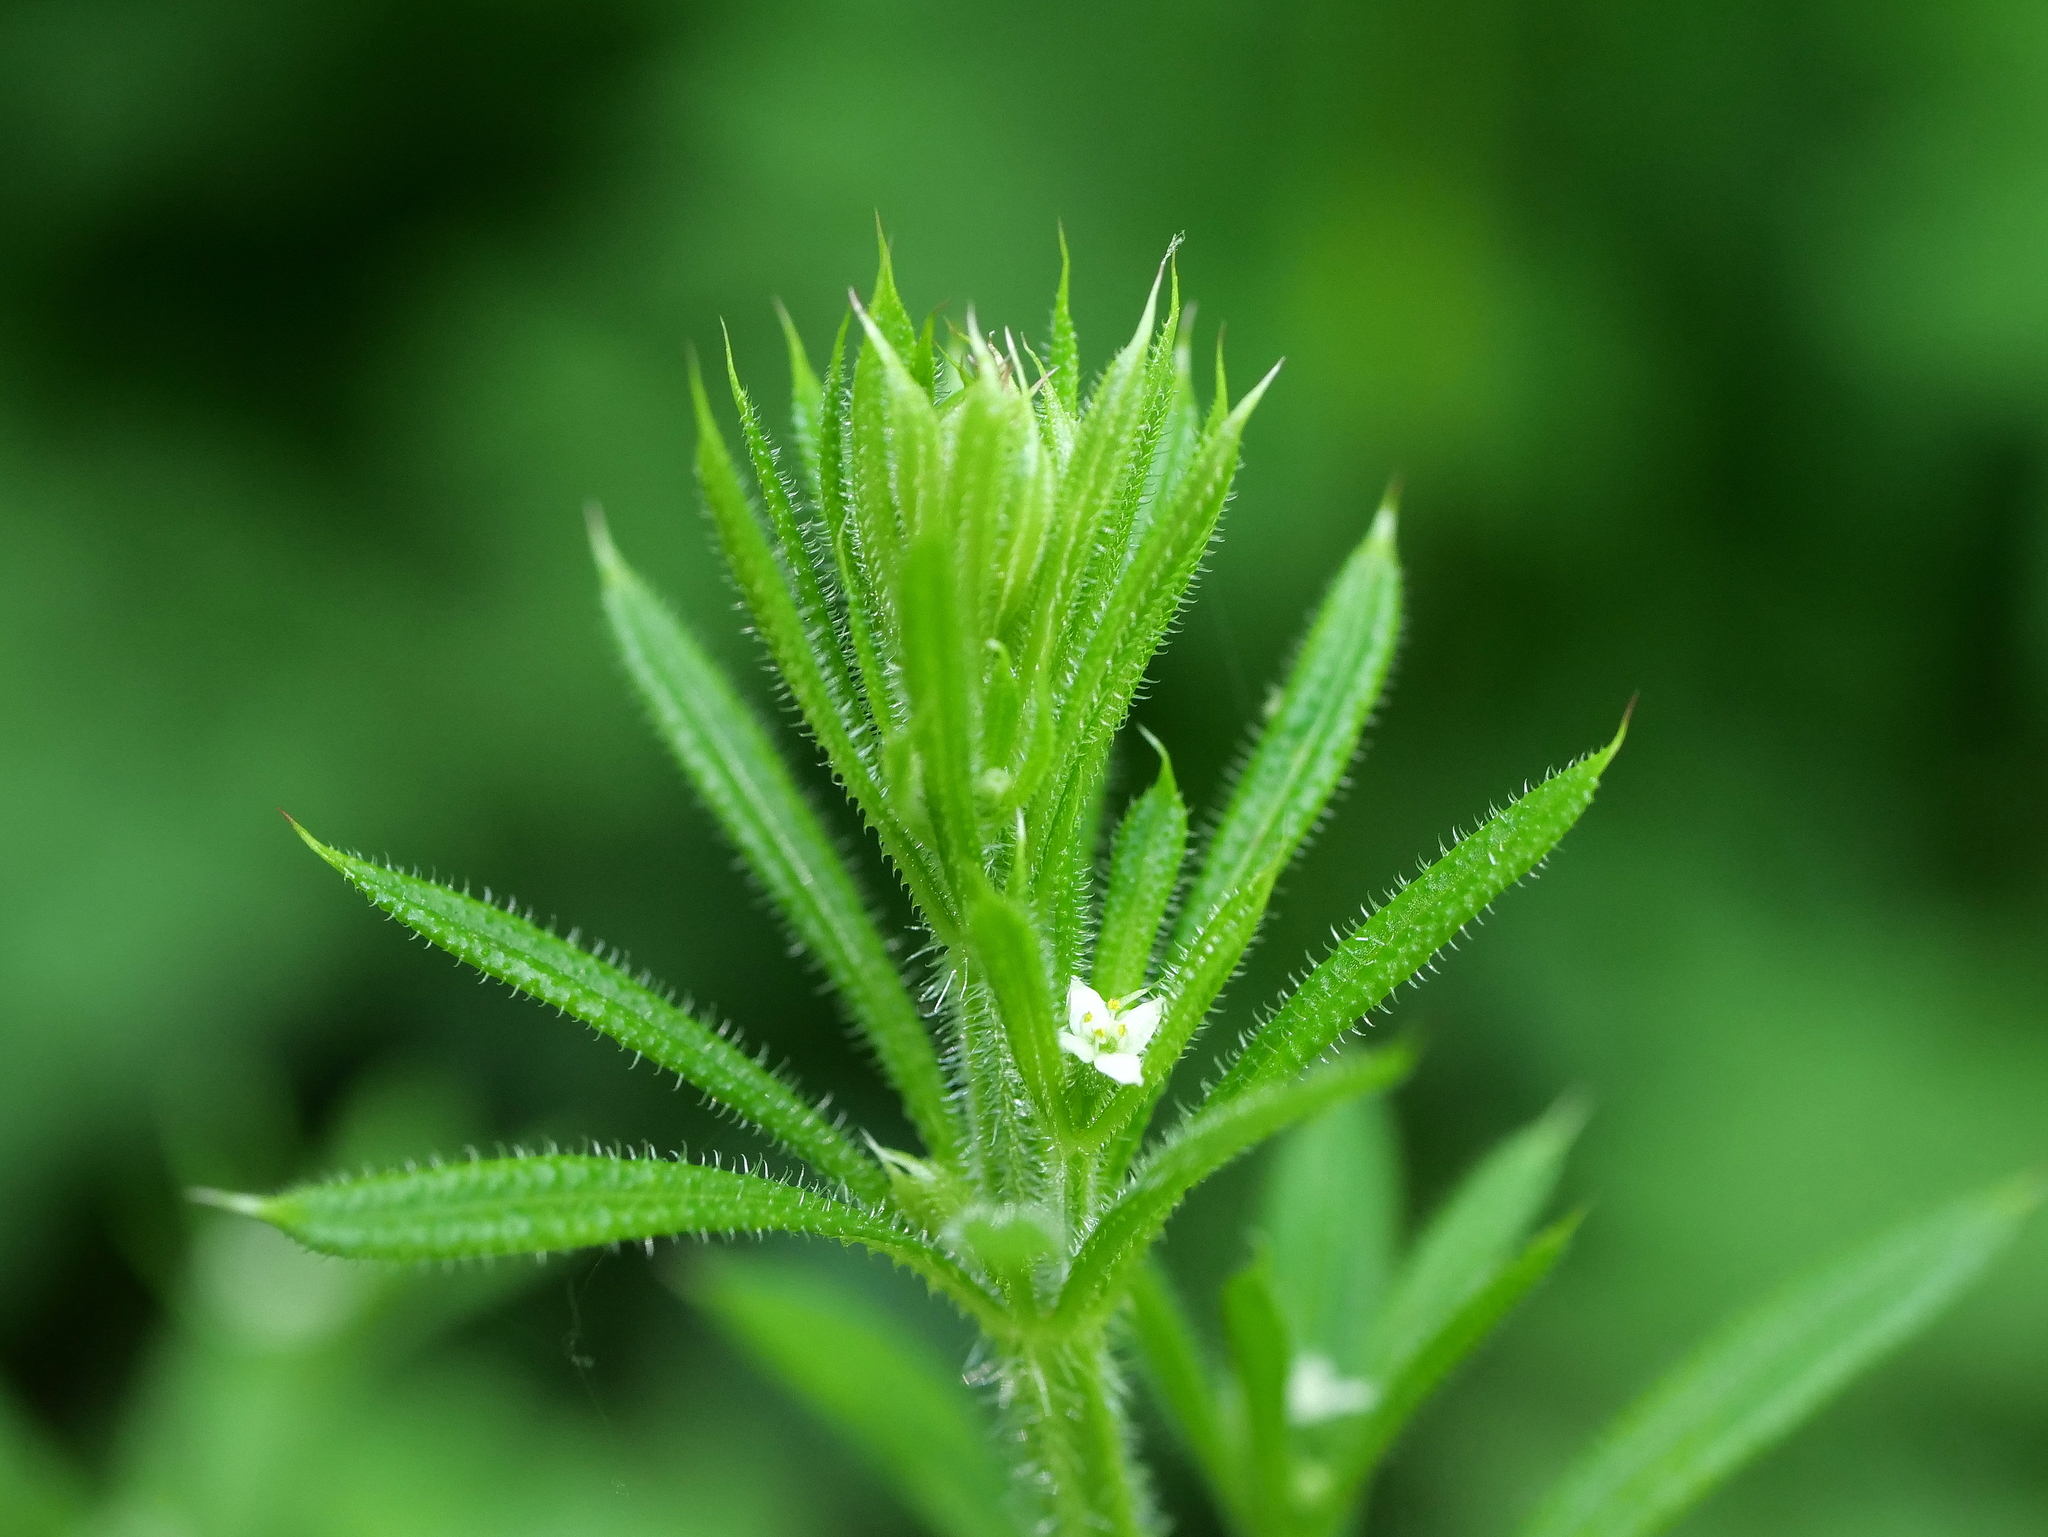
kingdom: Plantae
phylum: Tracheophyta
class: Magnoliopsida
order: Gentianales
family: Rubiaceae
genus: Galium
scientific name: Galium aparine
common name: Cleavers
